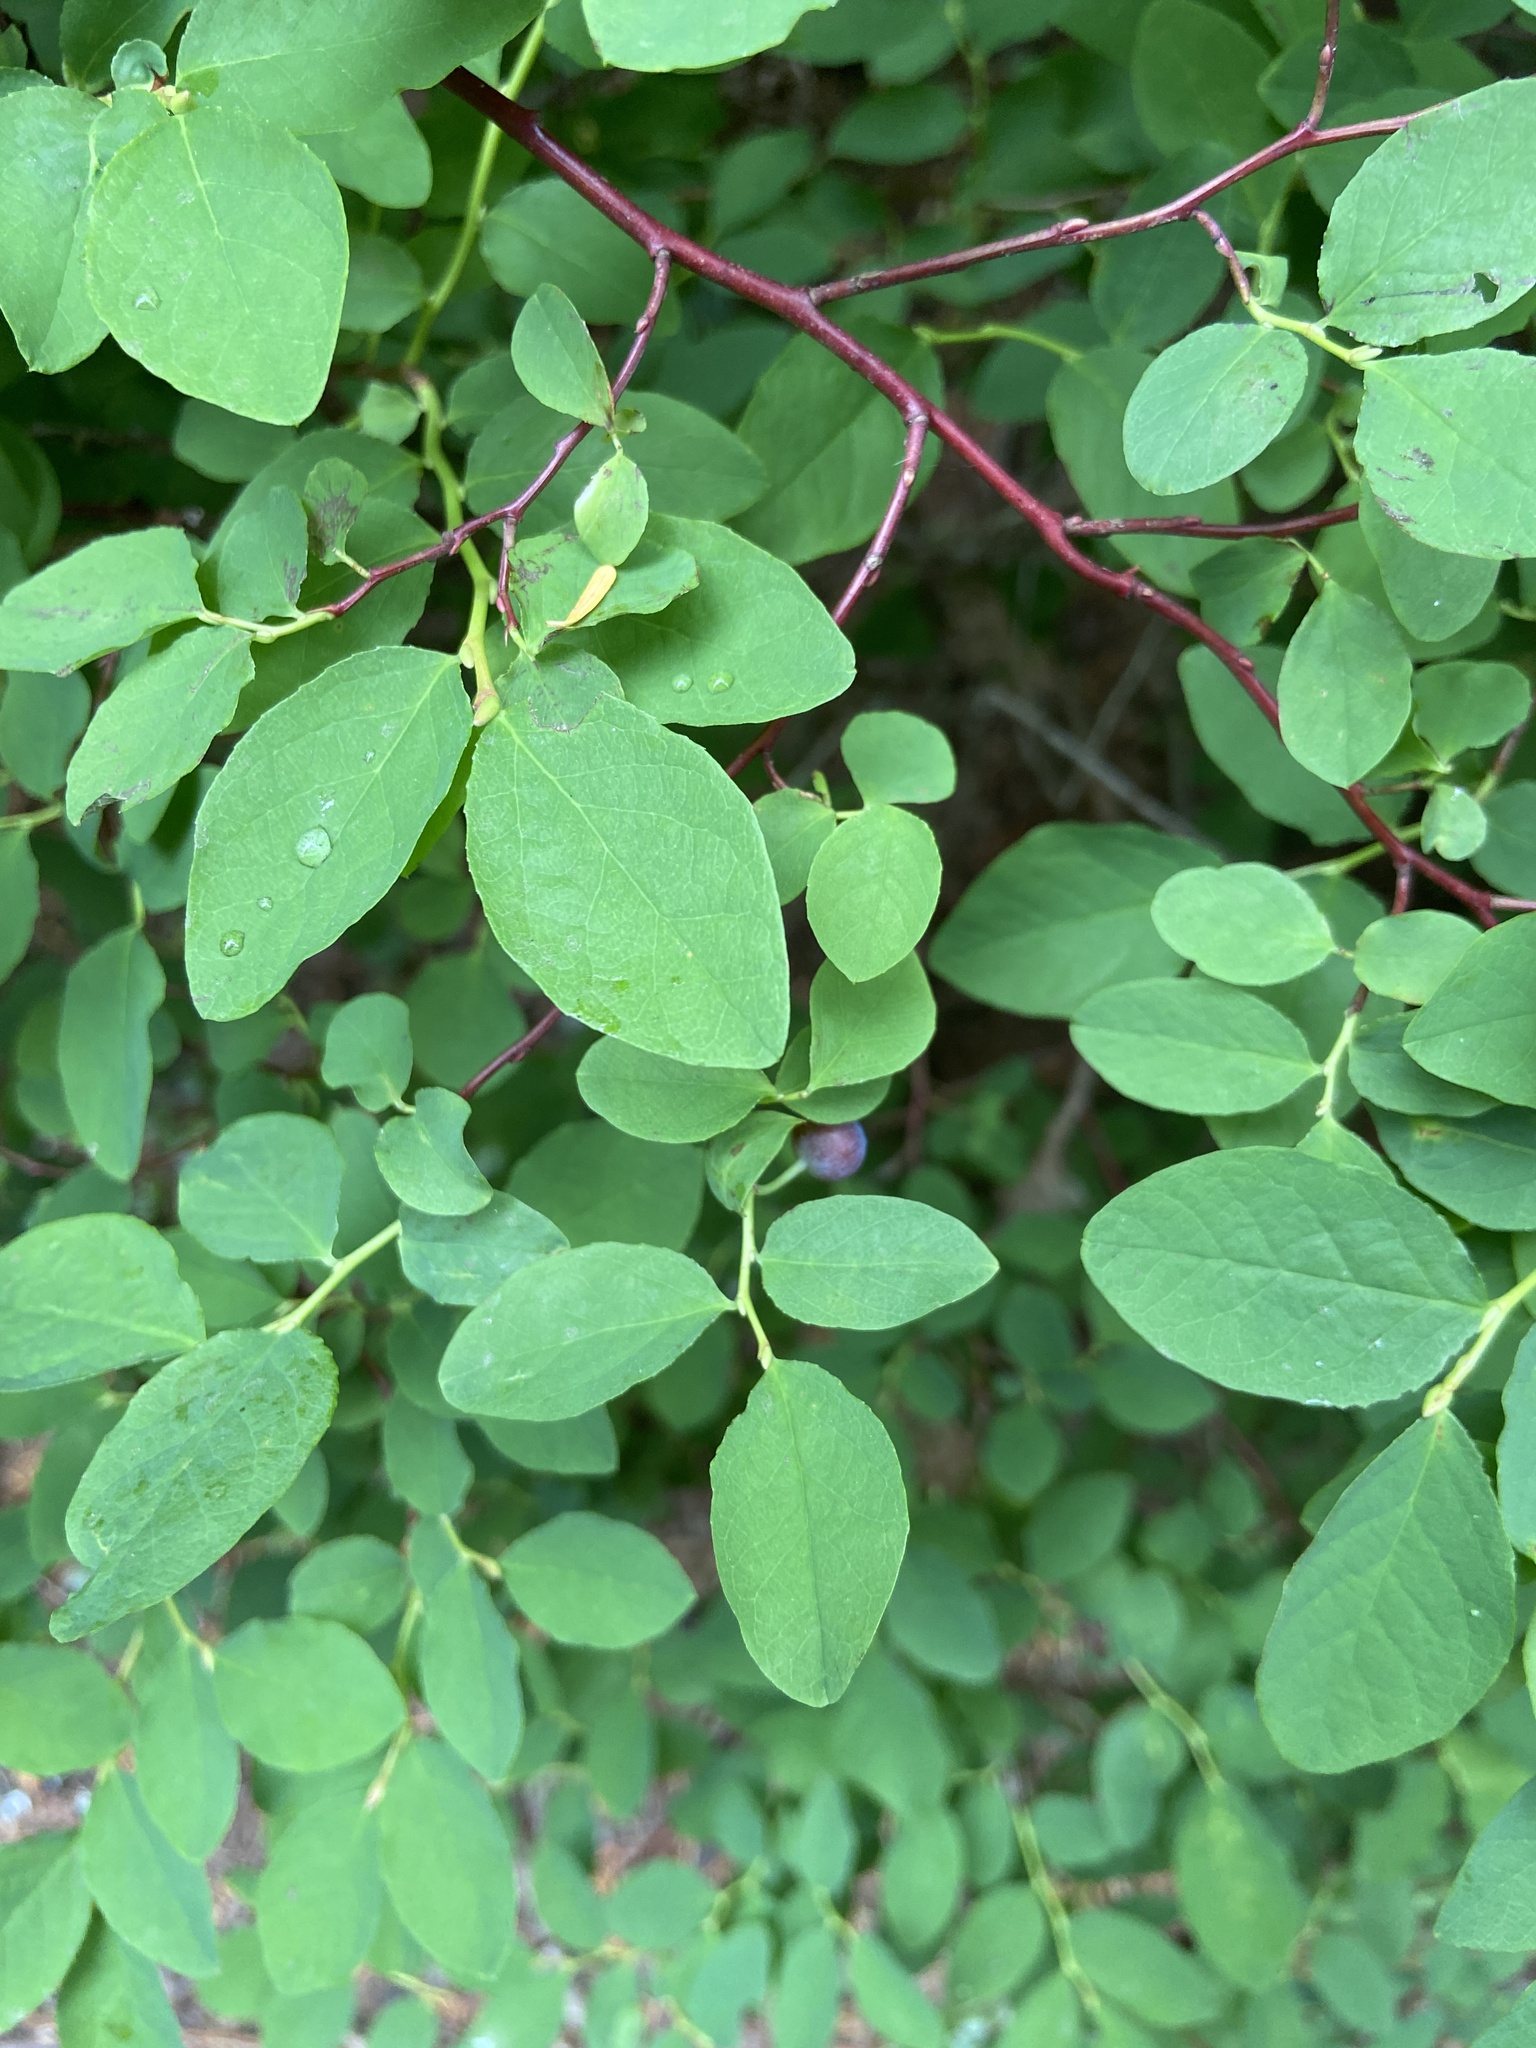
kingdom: Plantae
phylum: Tracheophyta
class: Magnoliopsida
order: Ericales
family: Ericaceae
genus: Vaccinium
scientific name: Vaccinium ovalifolium
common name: Early blueberry
